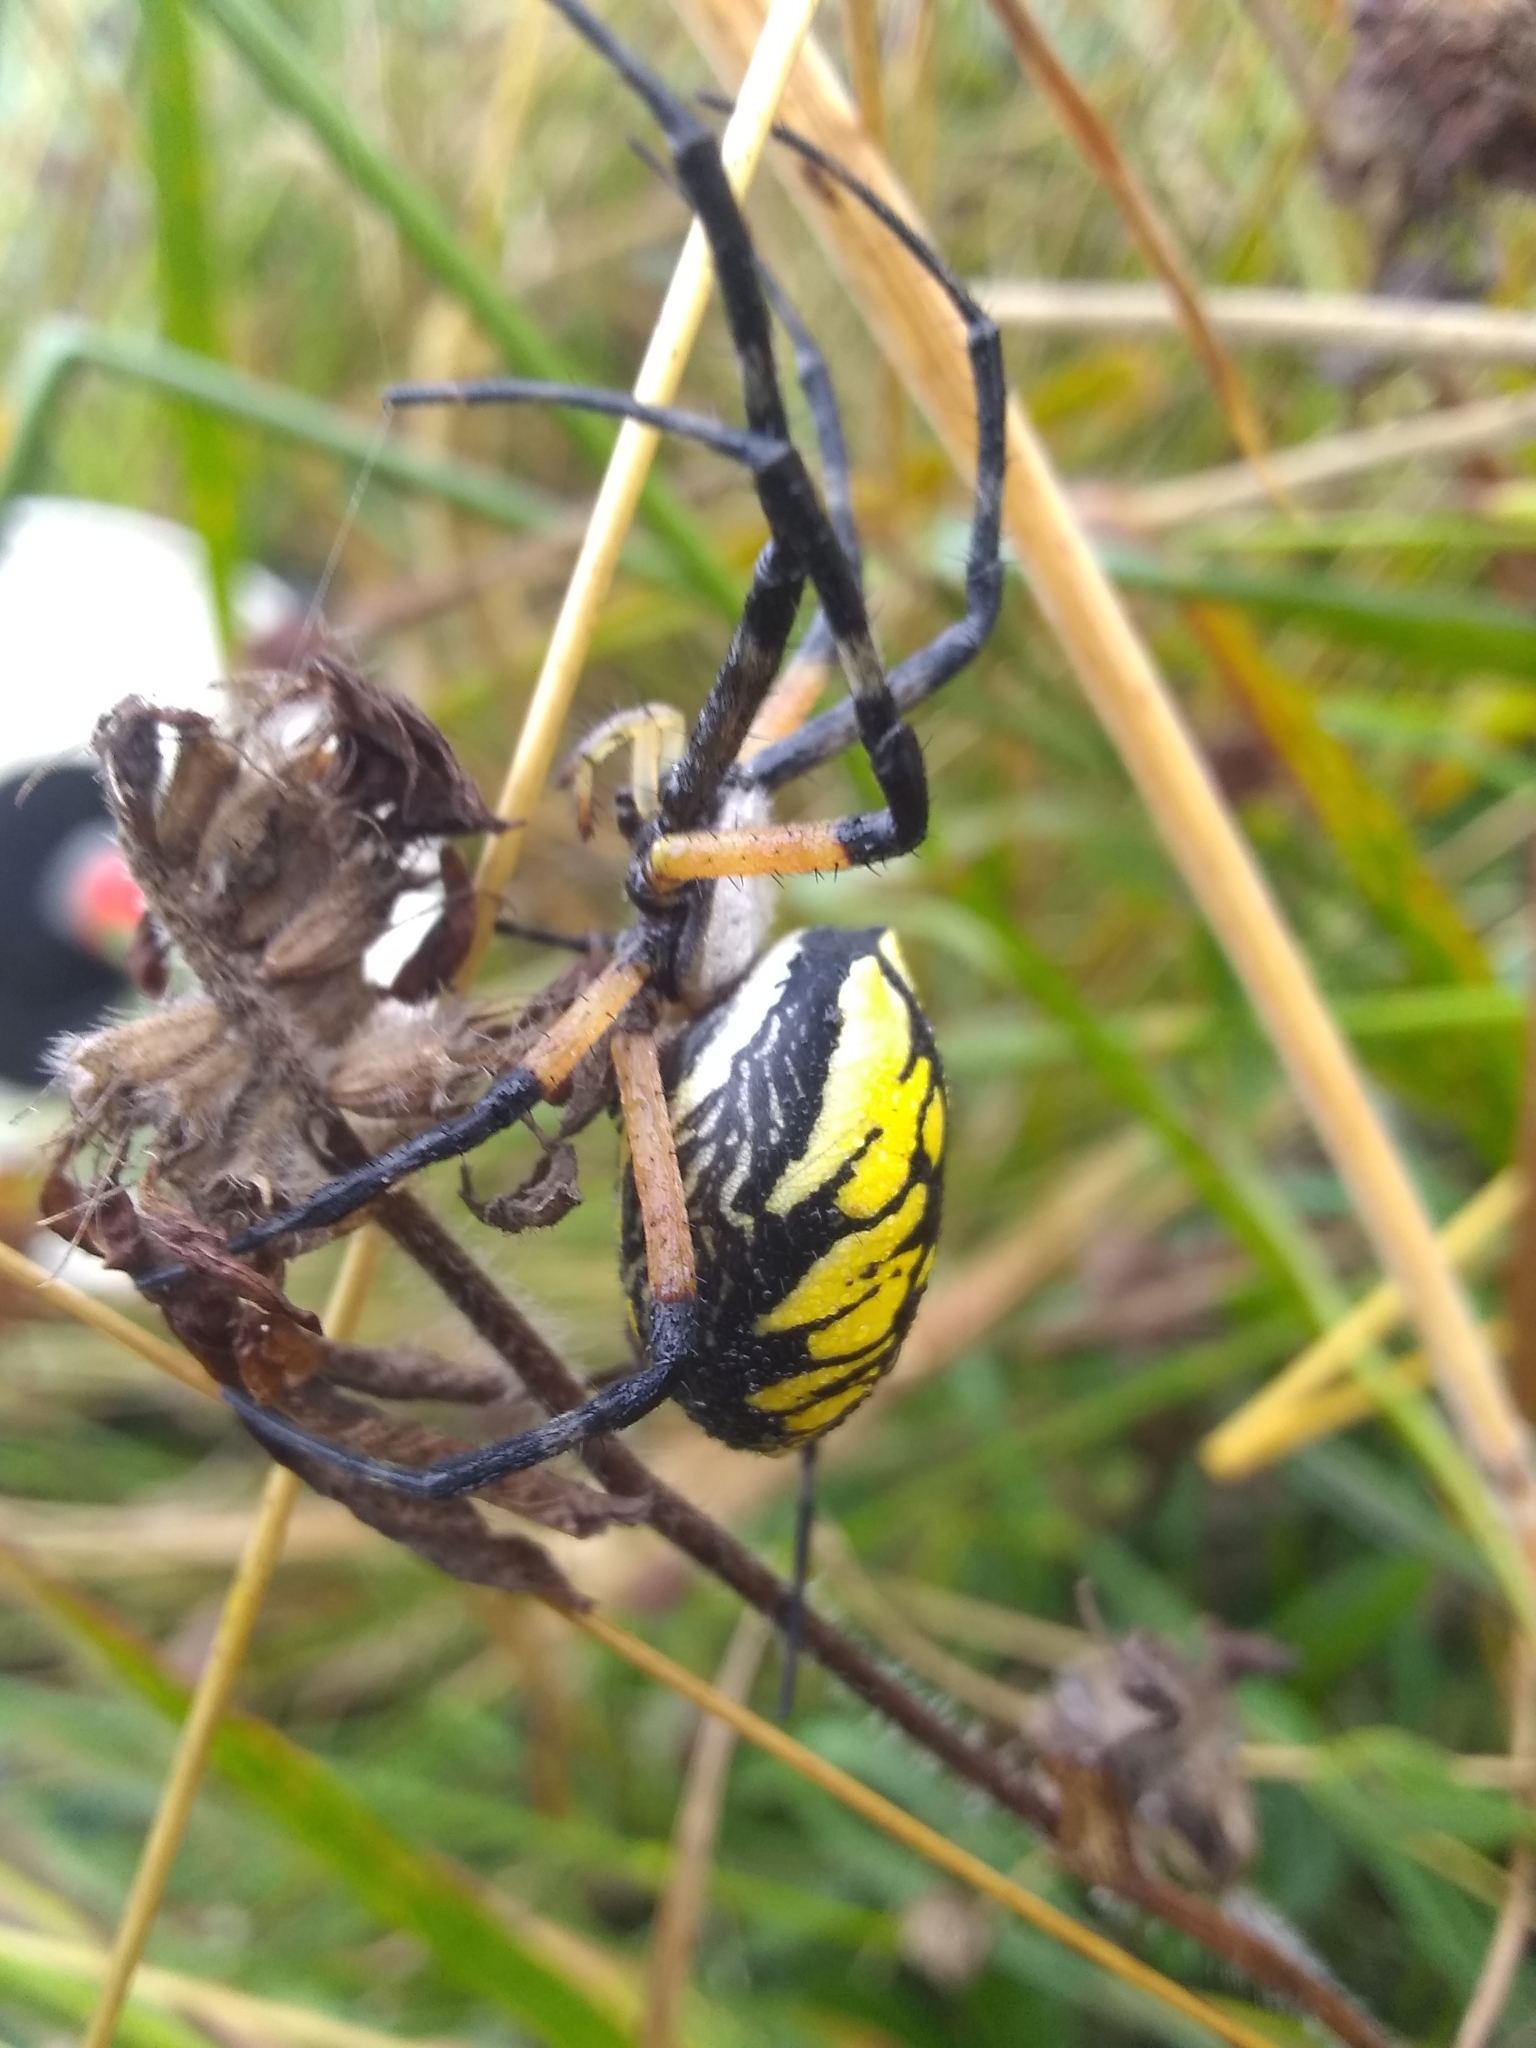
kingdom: Animalia
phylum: Arthropoda
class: Arachnida
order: Araneae
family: Araneidae
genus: Argiope
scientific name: Argiope aurantia
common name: Orb weavers
